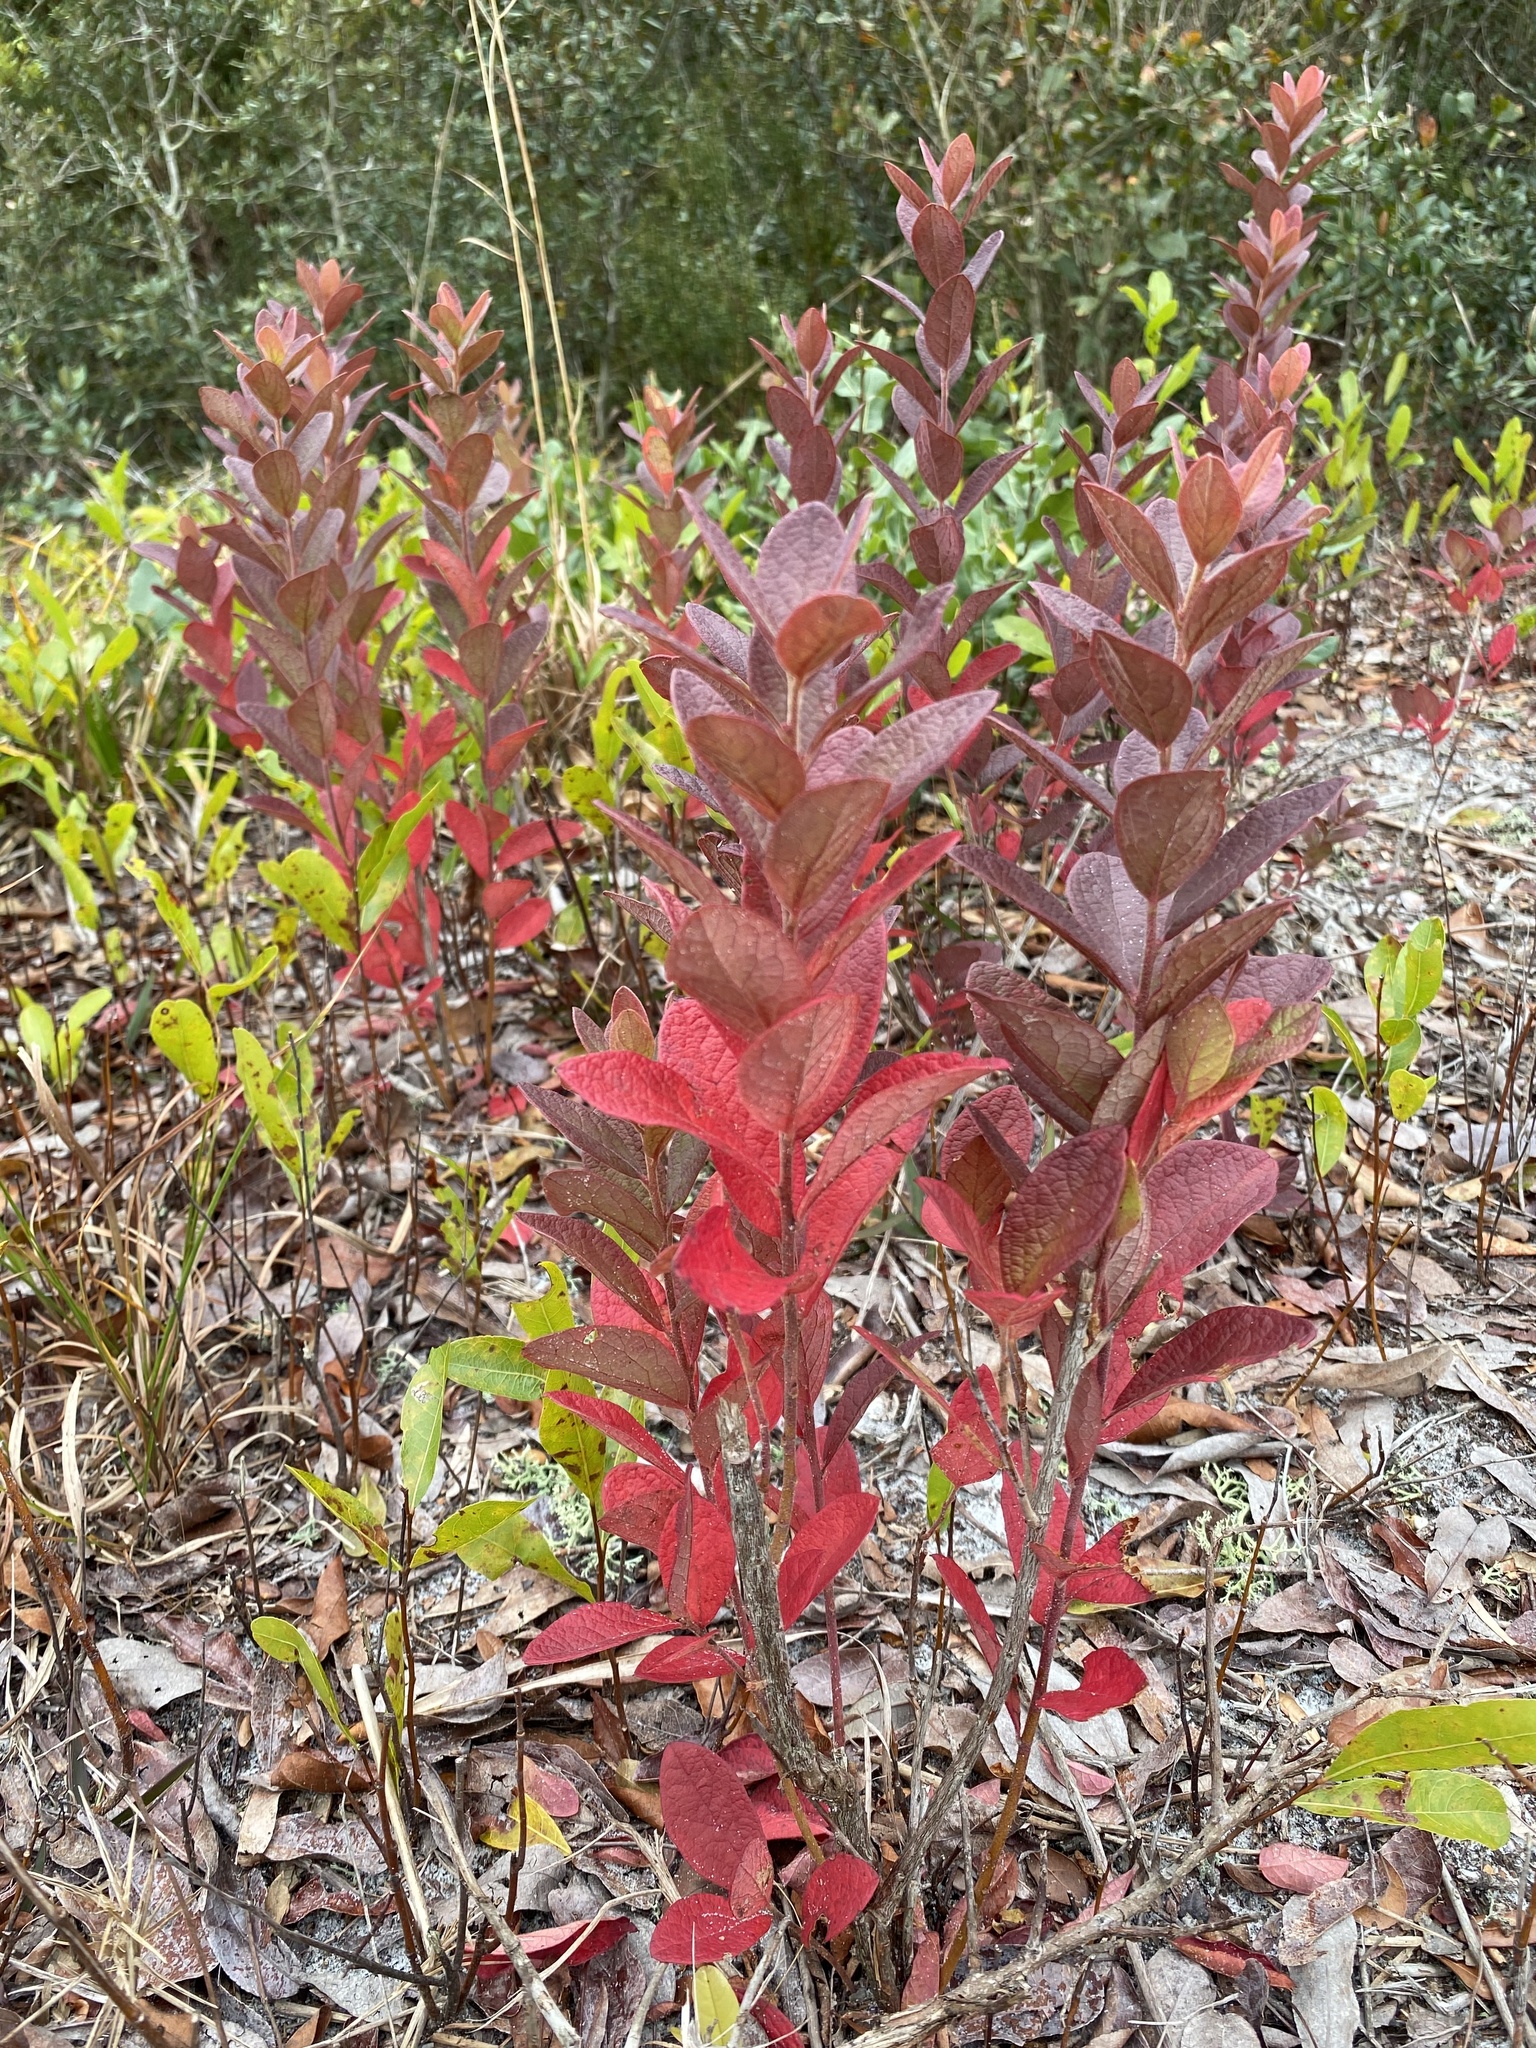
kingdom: Plantae
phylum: Tracheophyta
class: Magnoliopsida
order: Ericales
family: Ericaceae
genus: Gaylussacia
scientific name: Gaylussacia tomentosa
